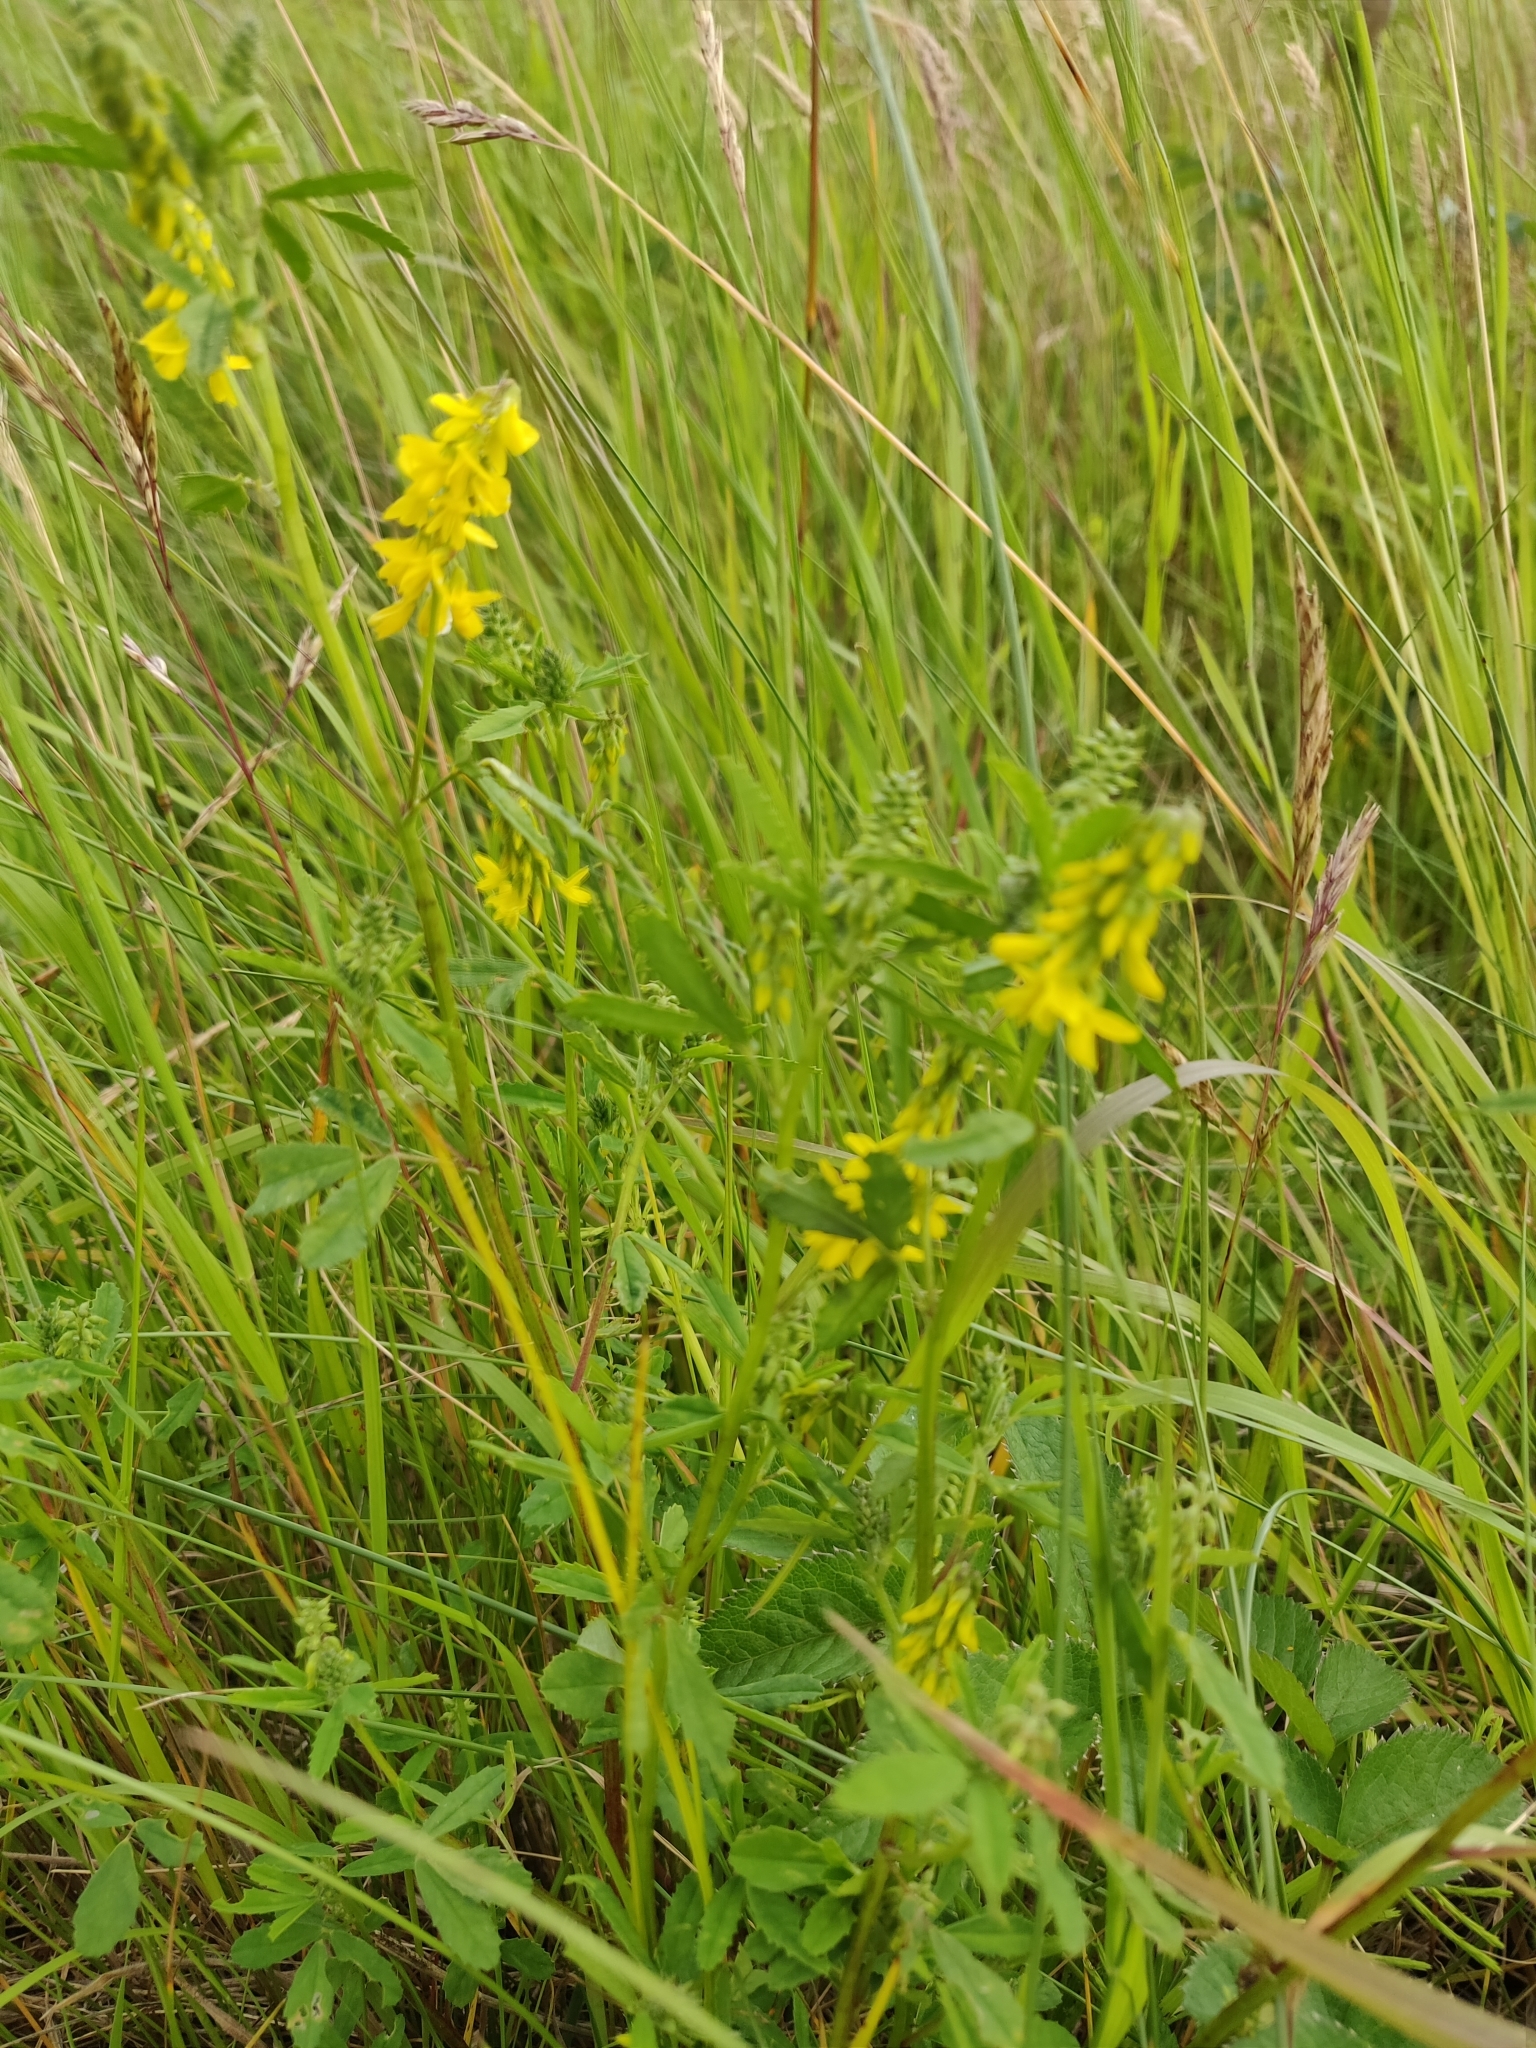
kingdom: Plantae
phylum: Tracheophyta
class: Magnoliopsida
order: Fabales
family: Fabaceae
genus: Melilotus
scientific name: Melilotus officinalis
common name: Sweetclover
